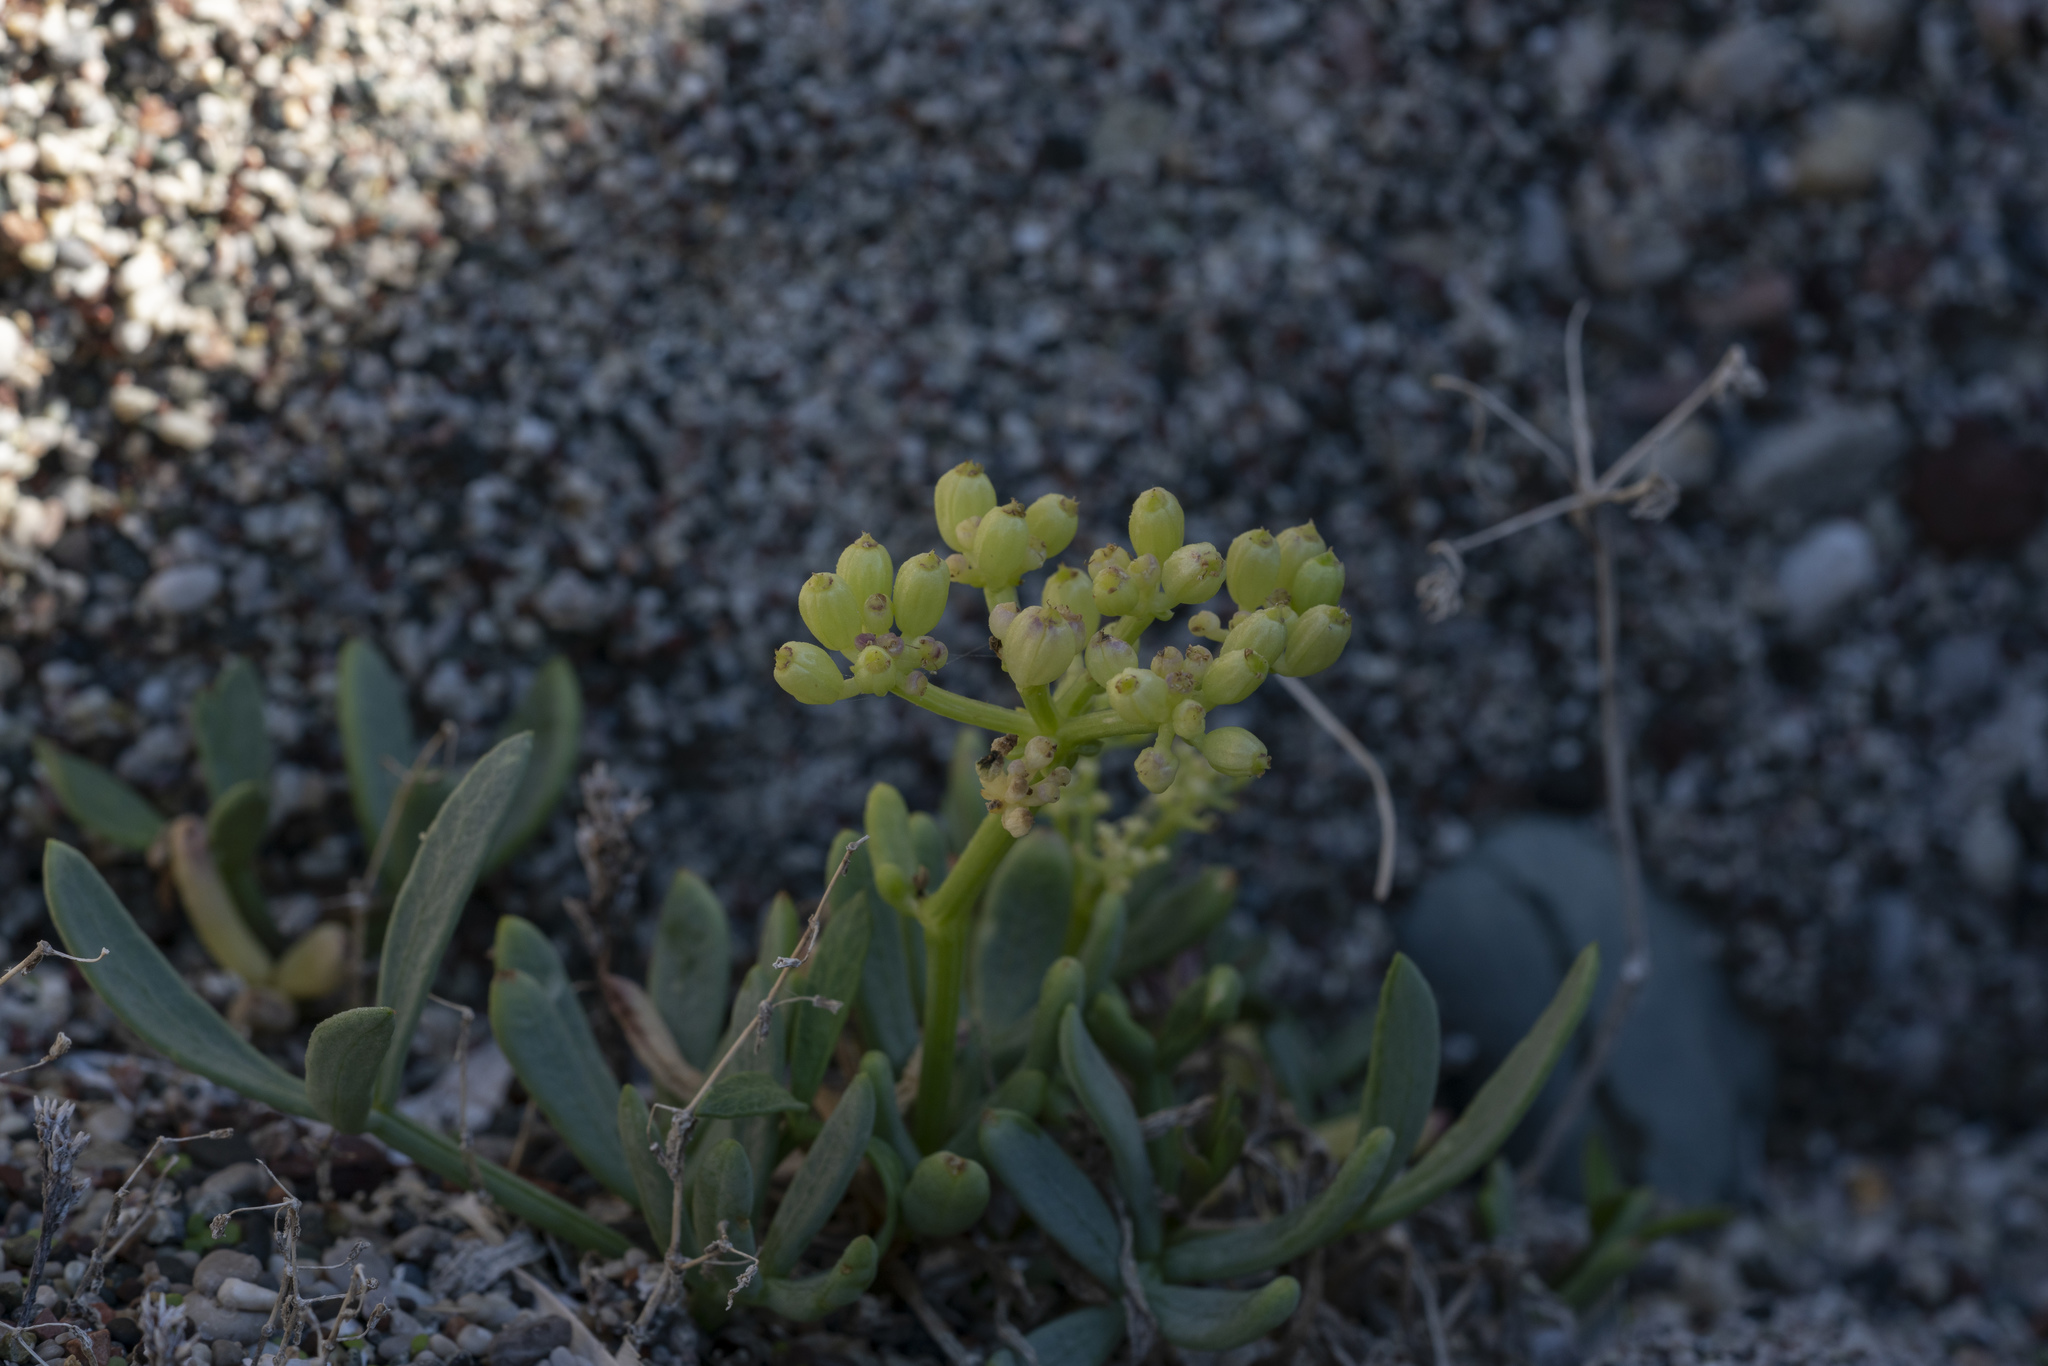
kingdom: Plantae
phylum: Tracheophyta
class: Magnoliopsida
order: Apiales
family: Apiaceae
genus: Crithmum
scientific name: Crithmum maritimum
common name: Rock samphire
